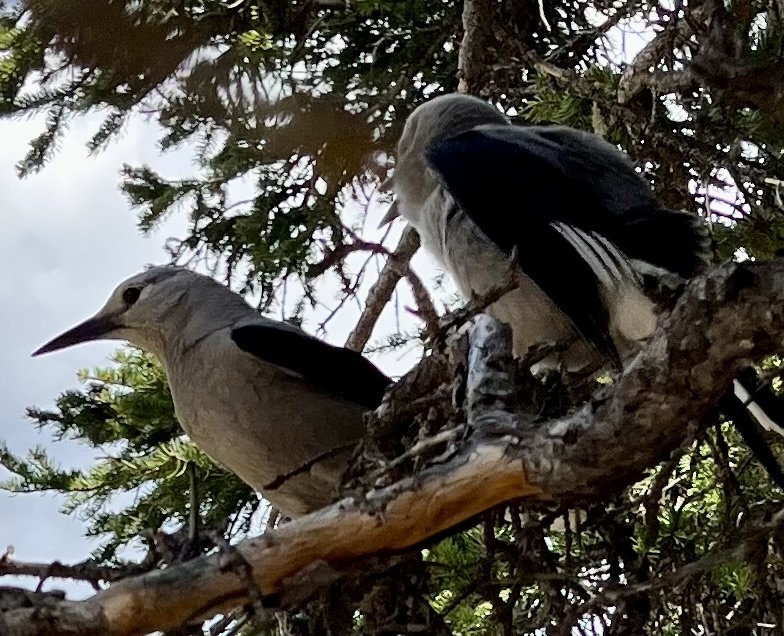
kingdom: Animalia
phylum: Chordata
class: Aves
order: Passeriformes
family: Corvidae
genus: Nucifraga
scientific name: Nucifraga columbiana
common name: Clark's nutcracker
